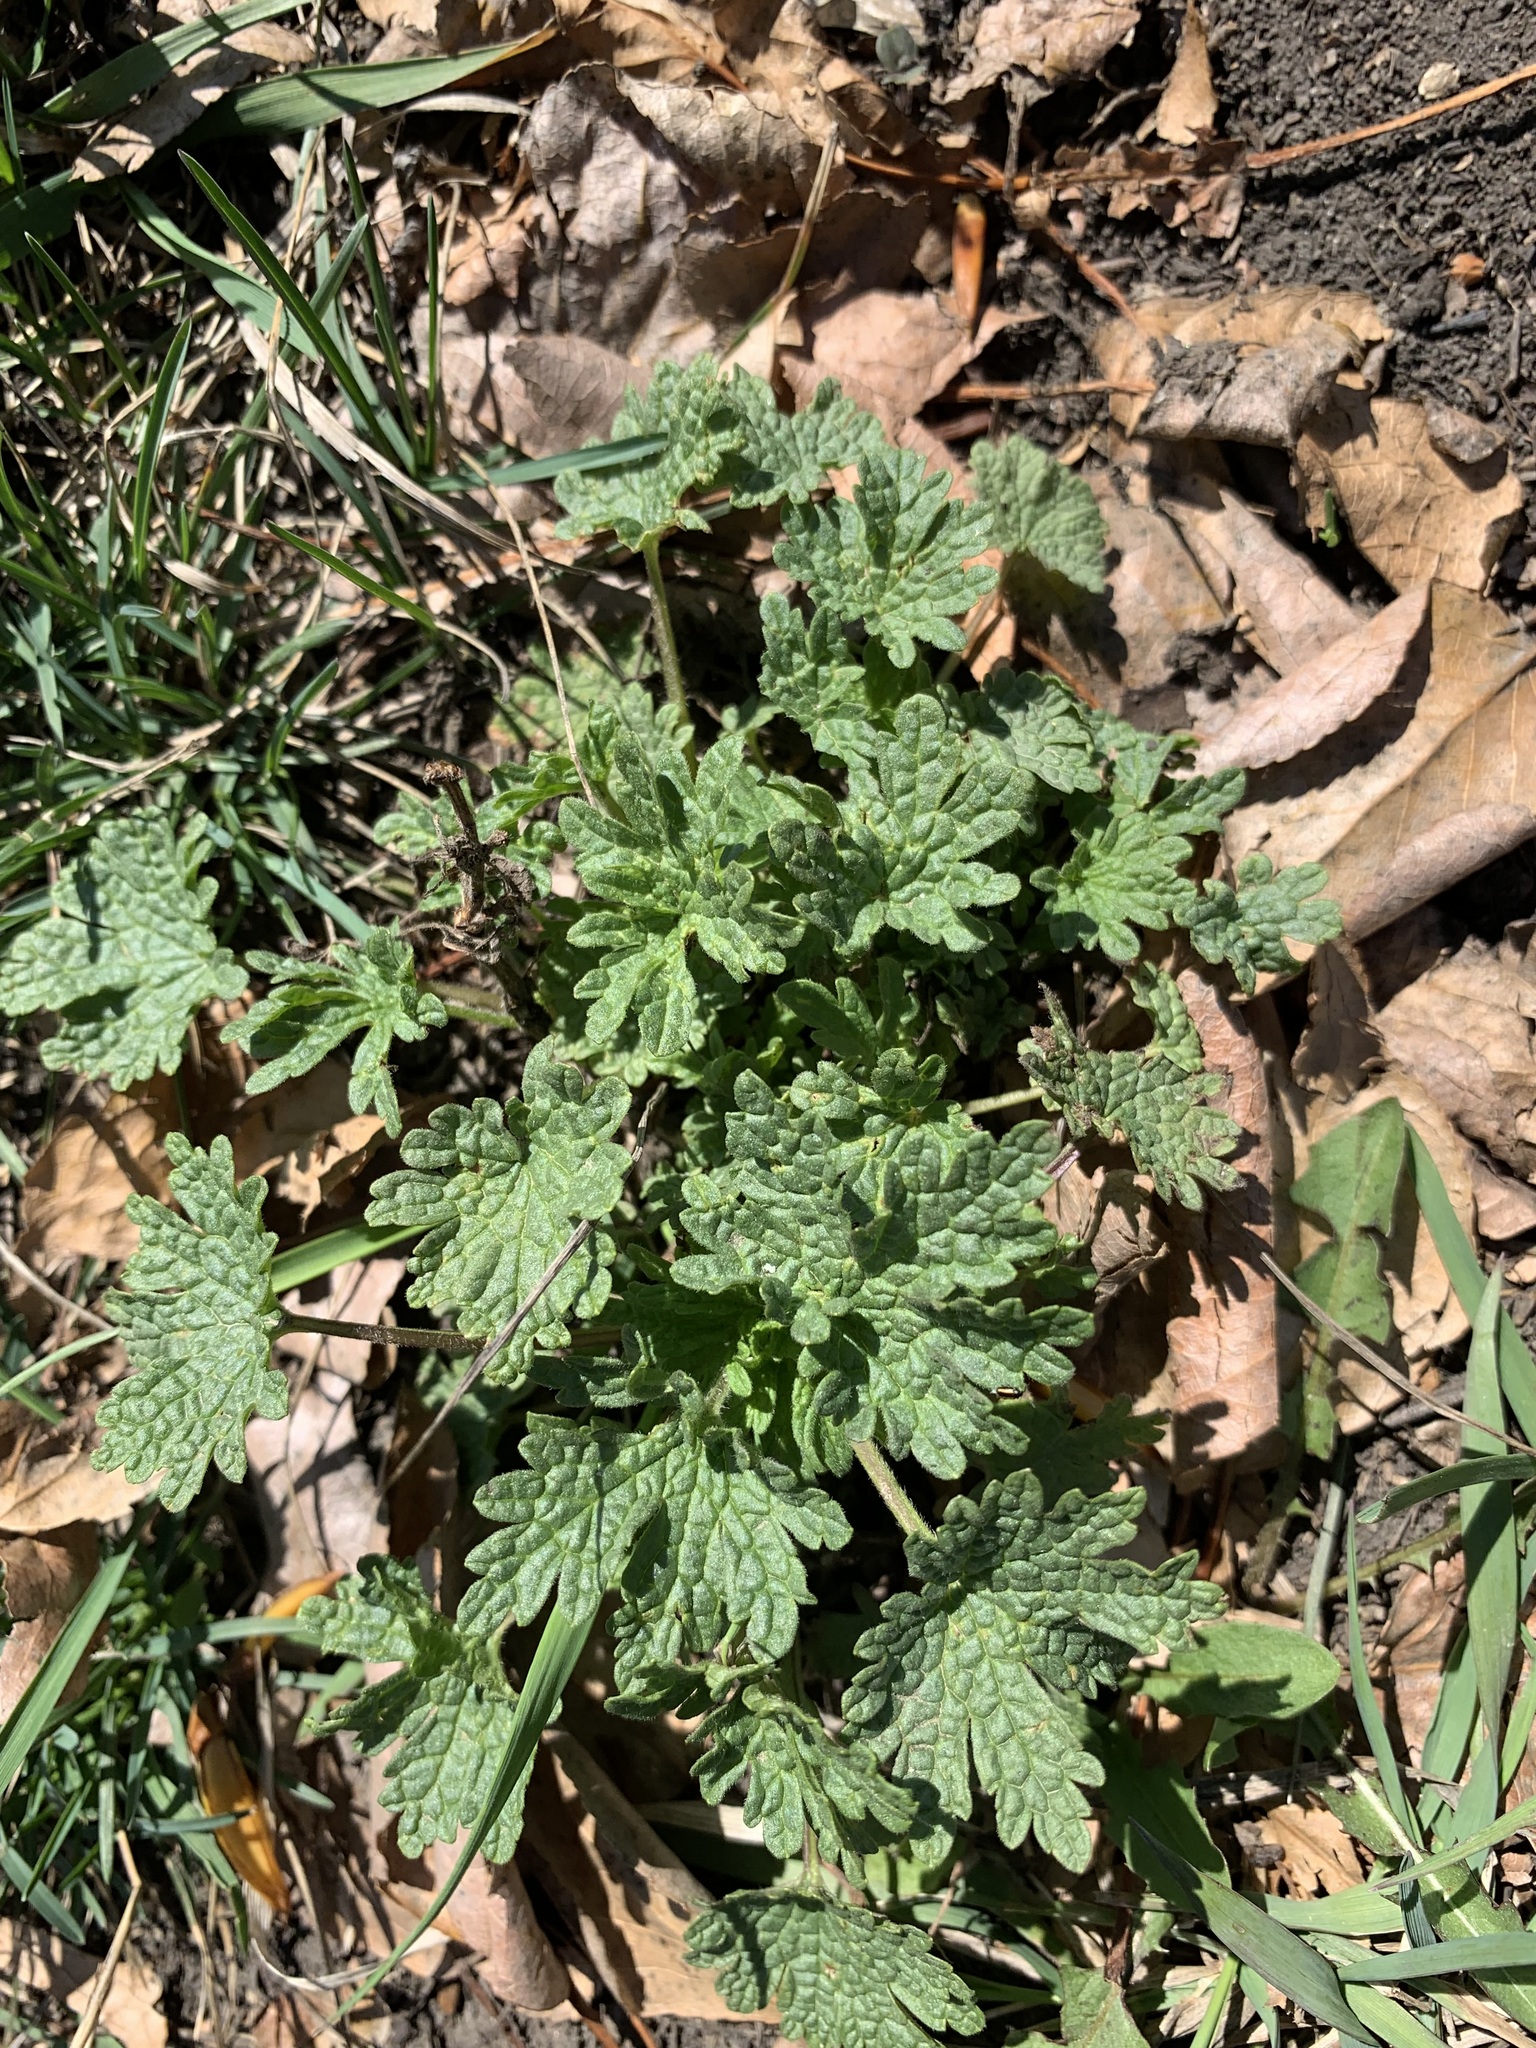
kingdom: Plantae
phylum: Tracheophyta
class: Magnoliopsida
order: Lamiales
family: Lamiaceae
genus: Leonurus
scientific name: Leonurus quinquelobatus
